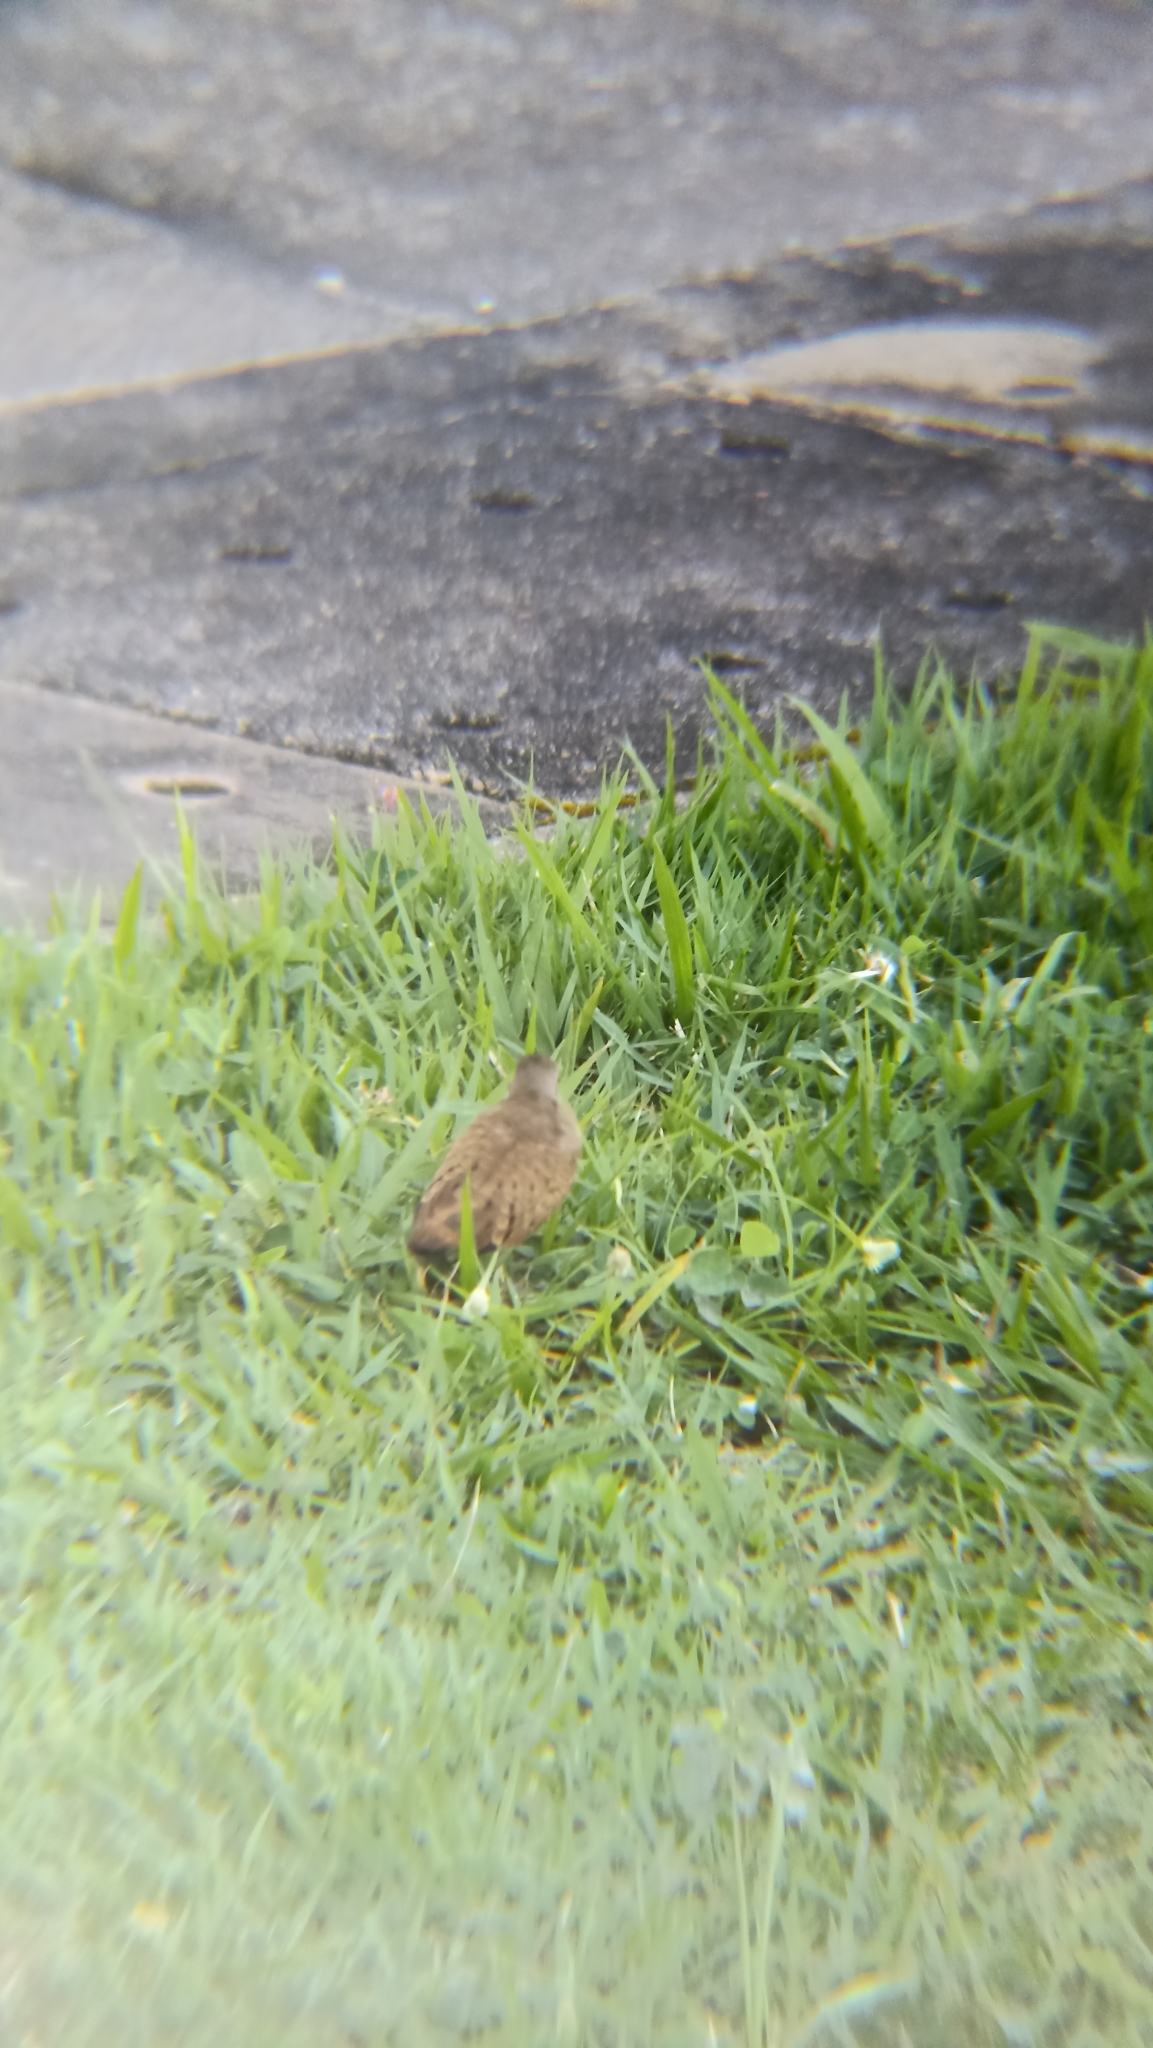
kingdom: Animalia
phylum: Chordata
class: Aves
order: Columbiformes
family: Columbidae
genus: Columbina
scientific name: Columbina talpacoti
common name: Ruddy ground dove
